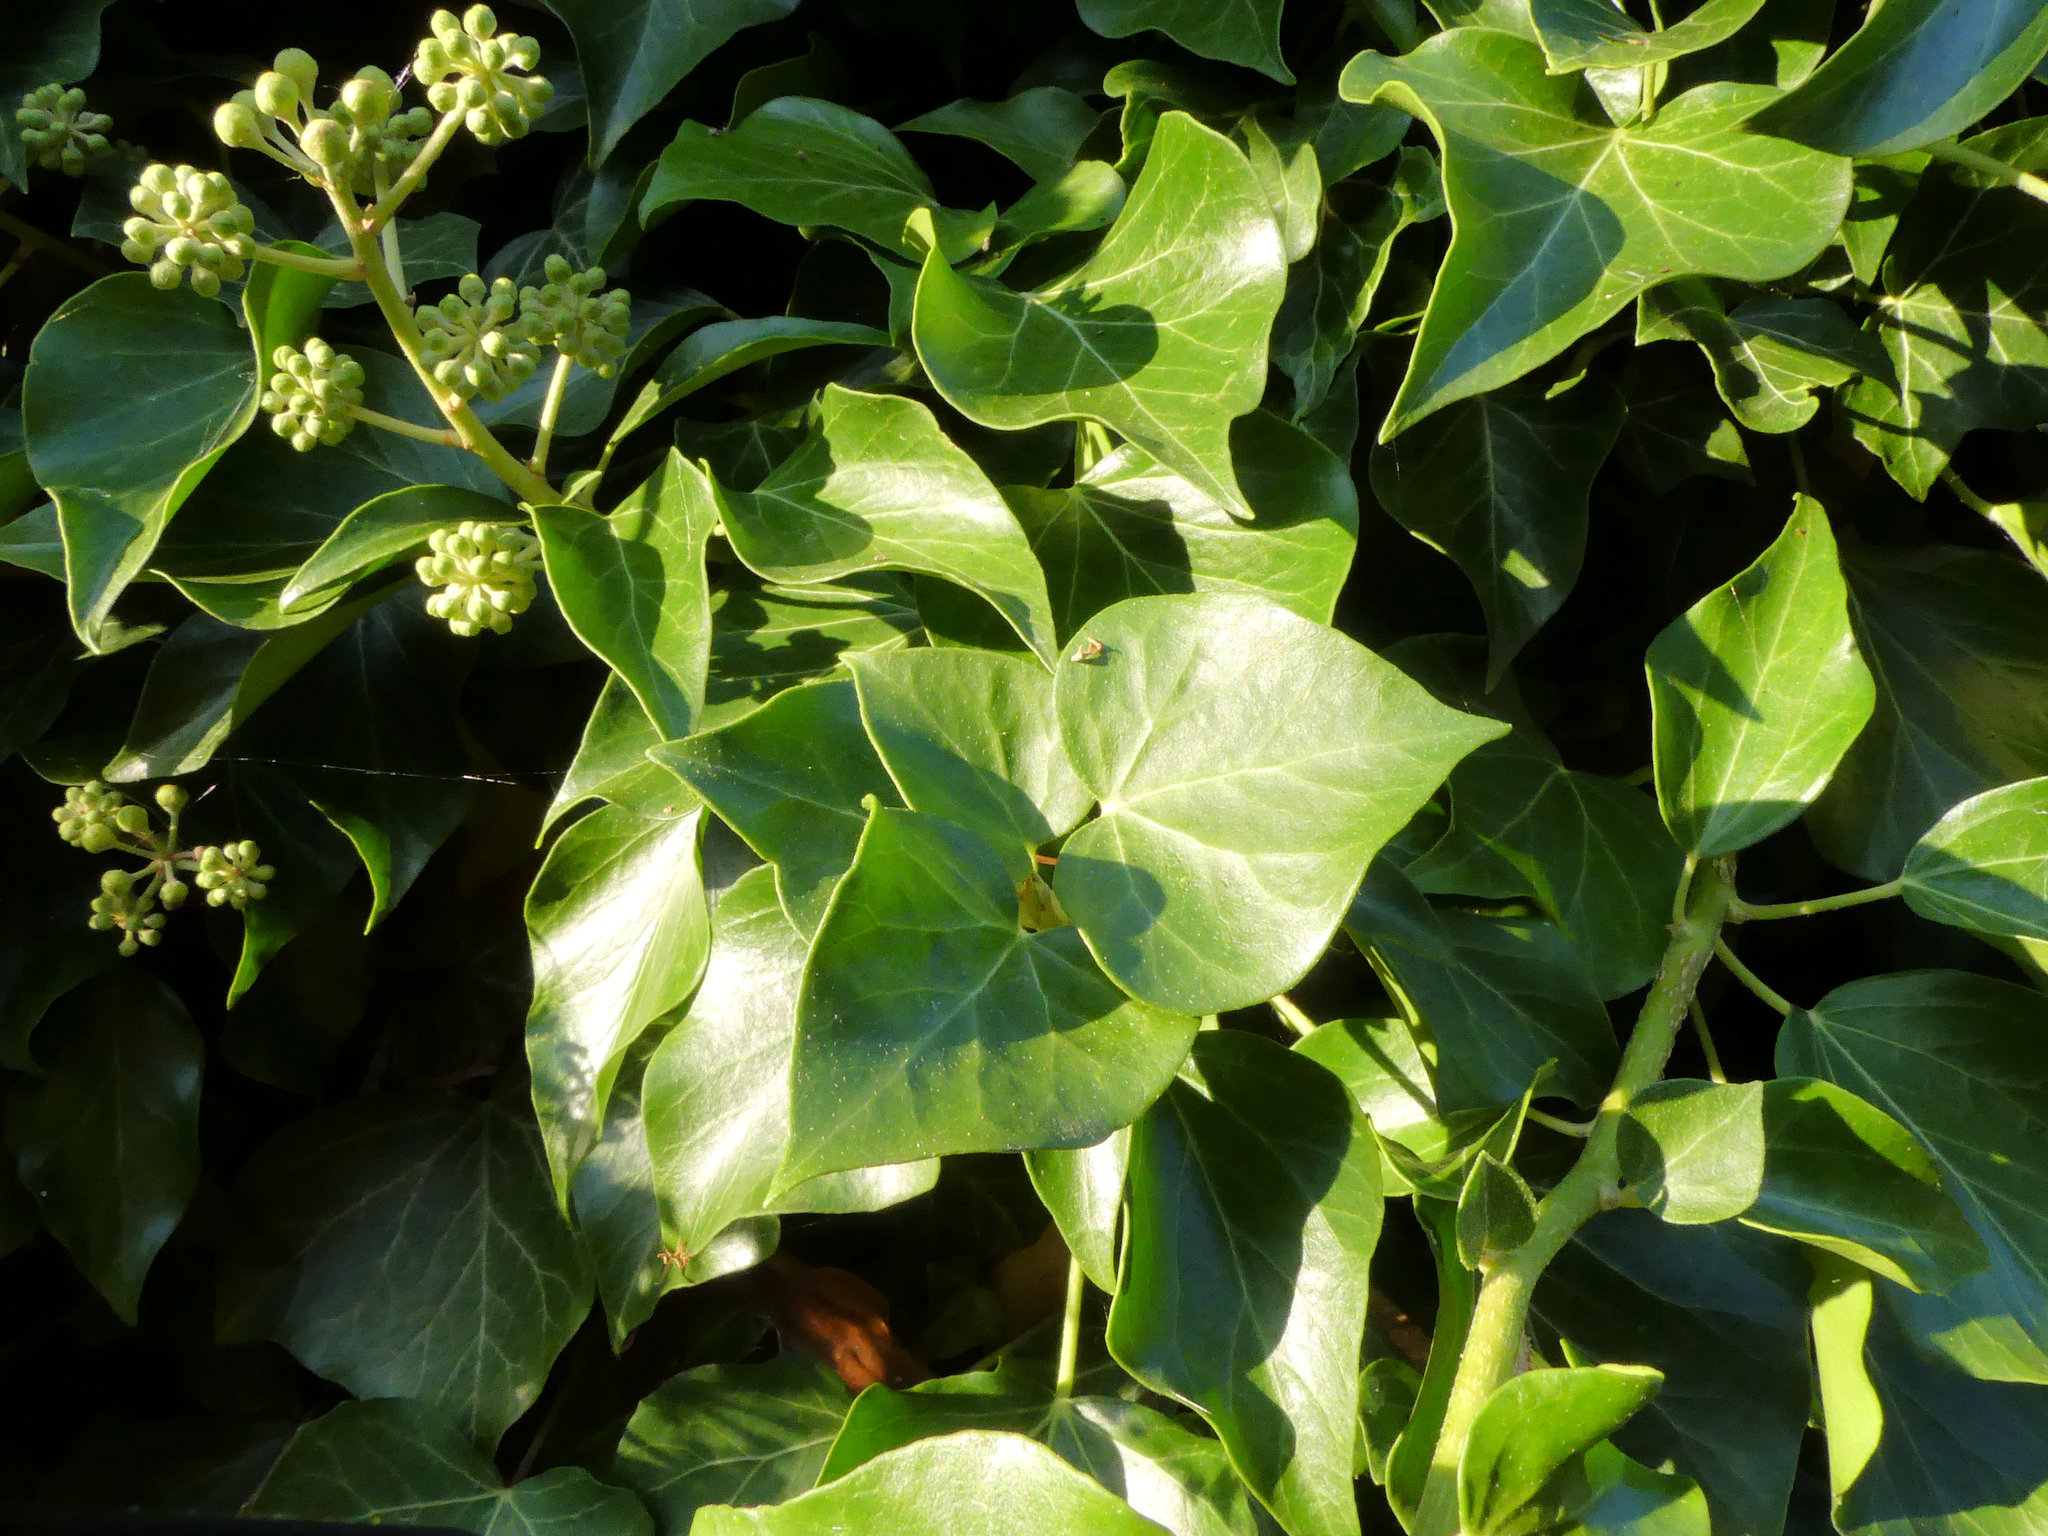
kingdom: Plantae
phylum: Tracheophyta
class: Magnoliopsida
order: Apiales
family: Araliaceae
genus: Hedera
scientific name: Hedera helix
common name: Ivy
